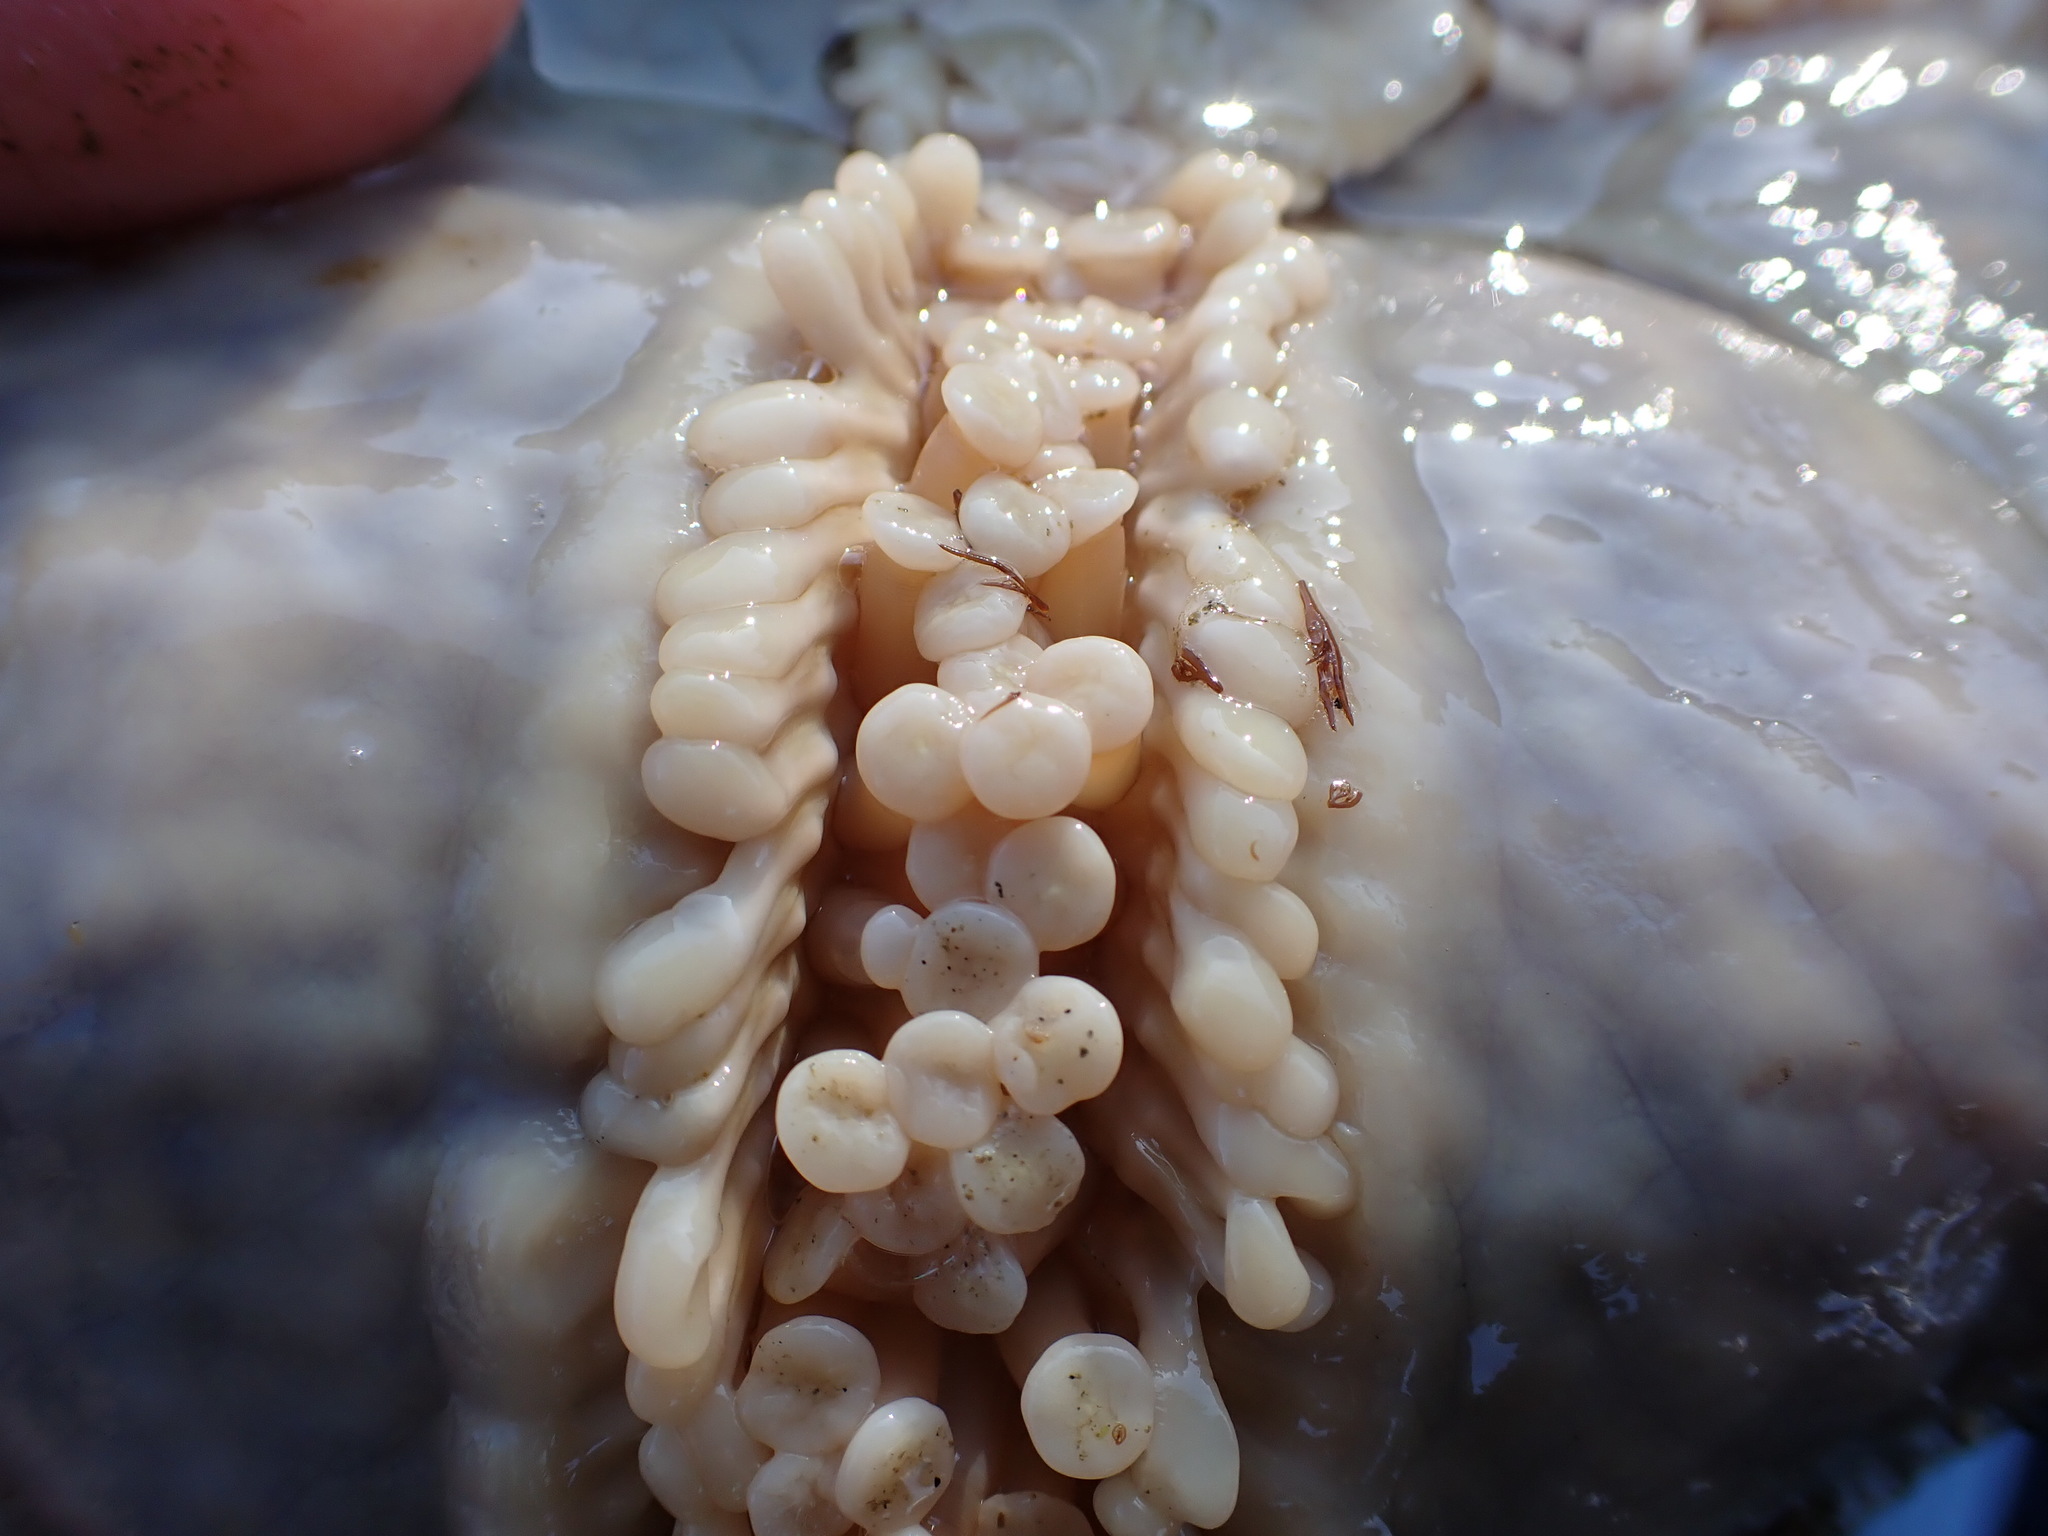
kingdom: Animalia
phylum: Echinodermata
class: Asteroidea
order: Valvatida
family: Asteropseidae
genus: Dermasterias
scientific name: Dermasterias imbricata
